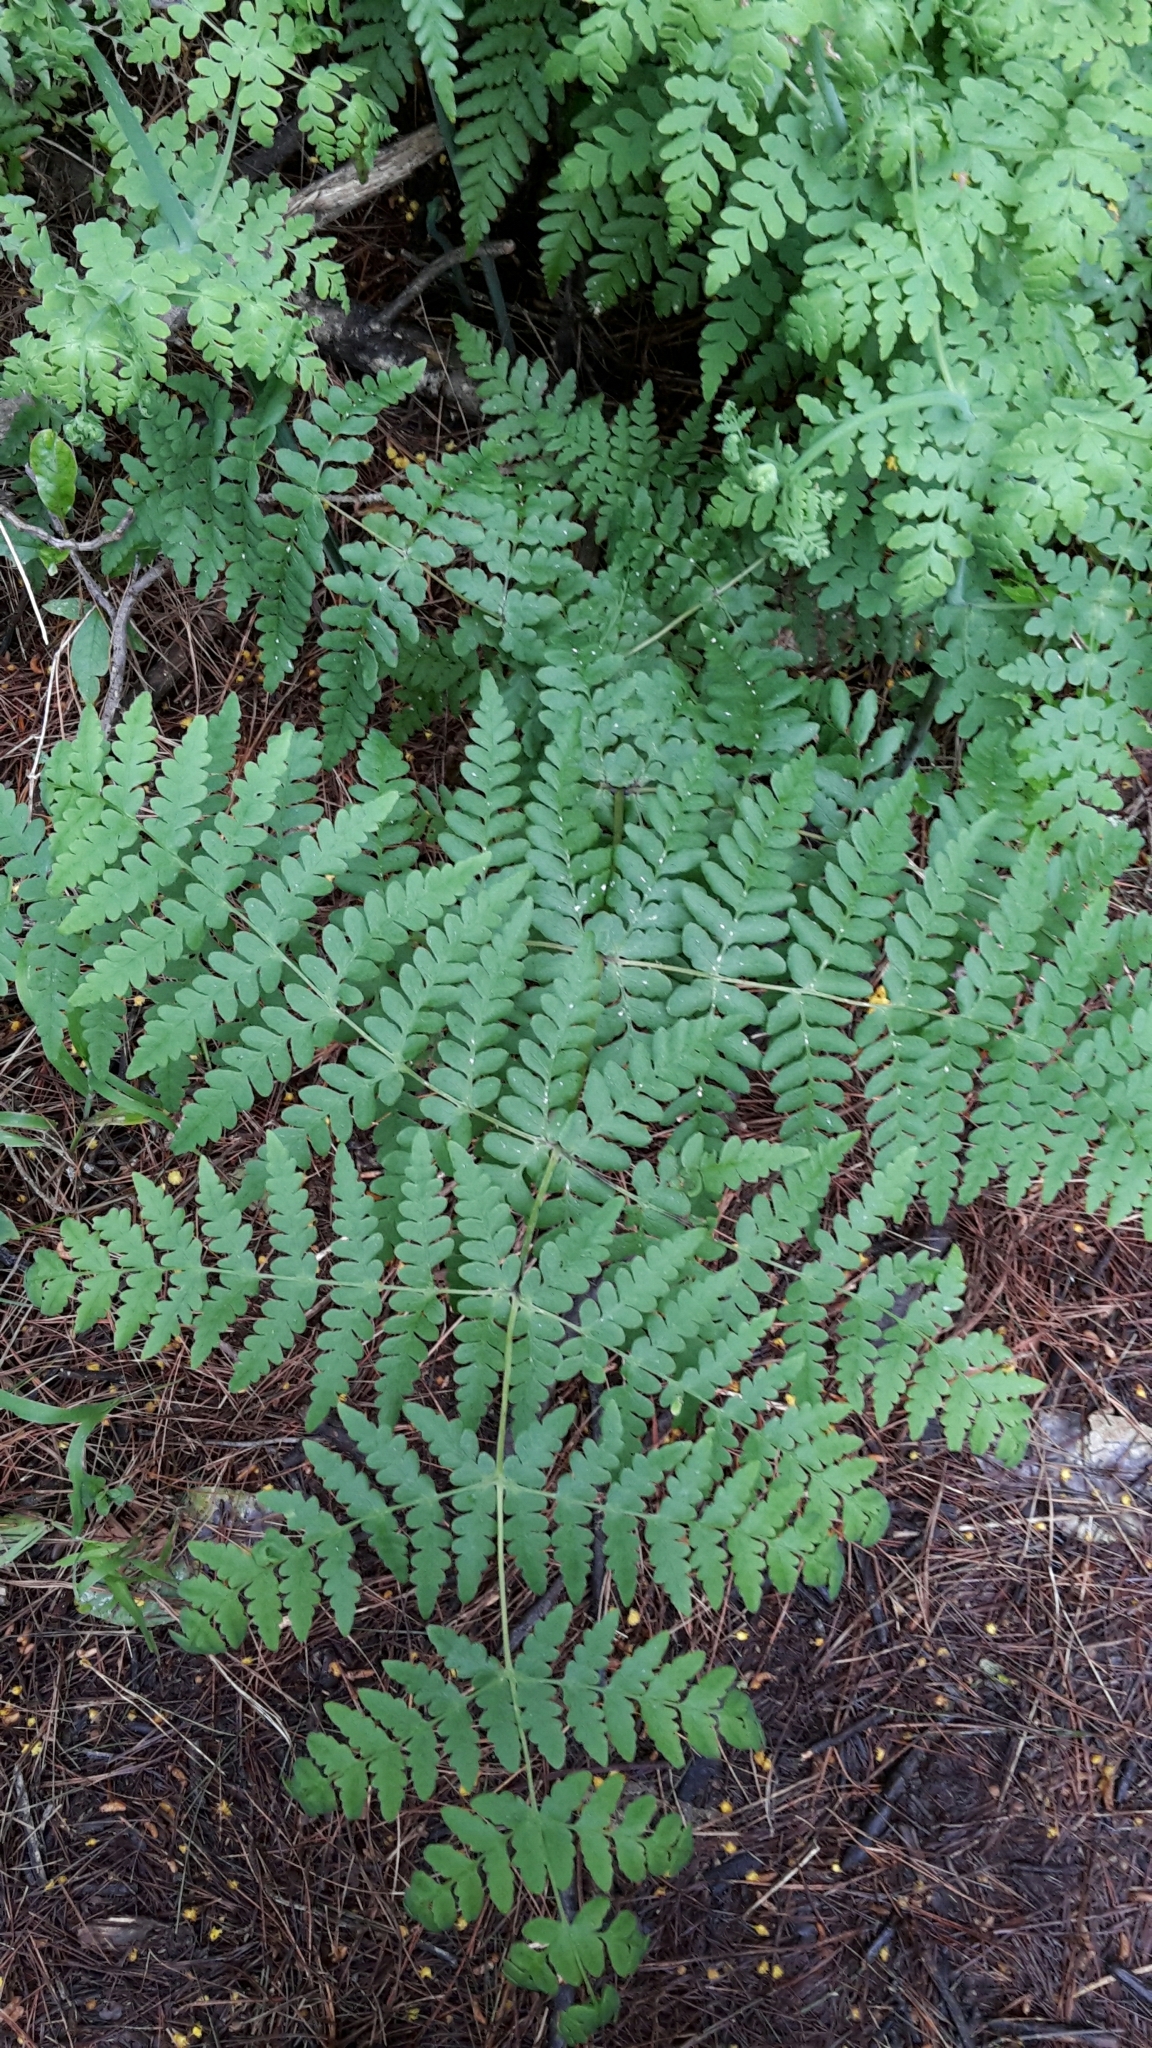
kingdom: Plantae
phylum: Tracheophyta
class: Polypodiopsida
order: Polypodiales
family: Dennstaedtiaceae
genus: Histiopteris
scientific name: Histiopteris incisa
